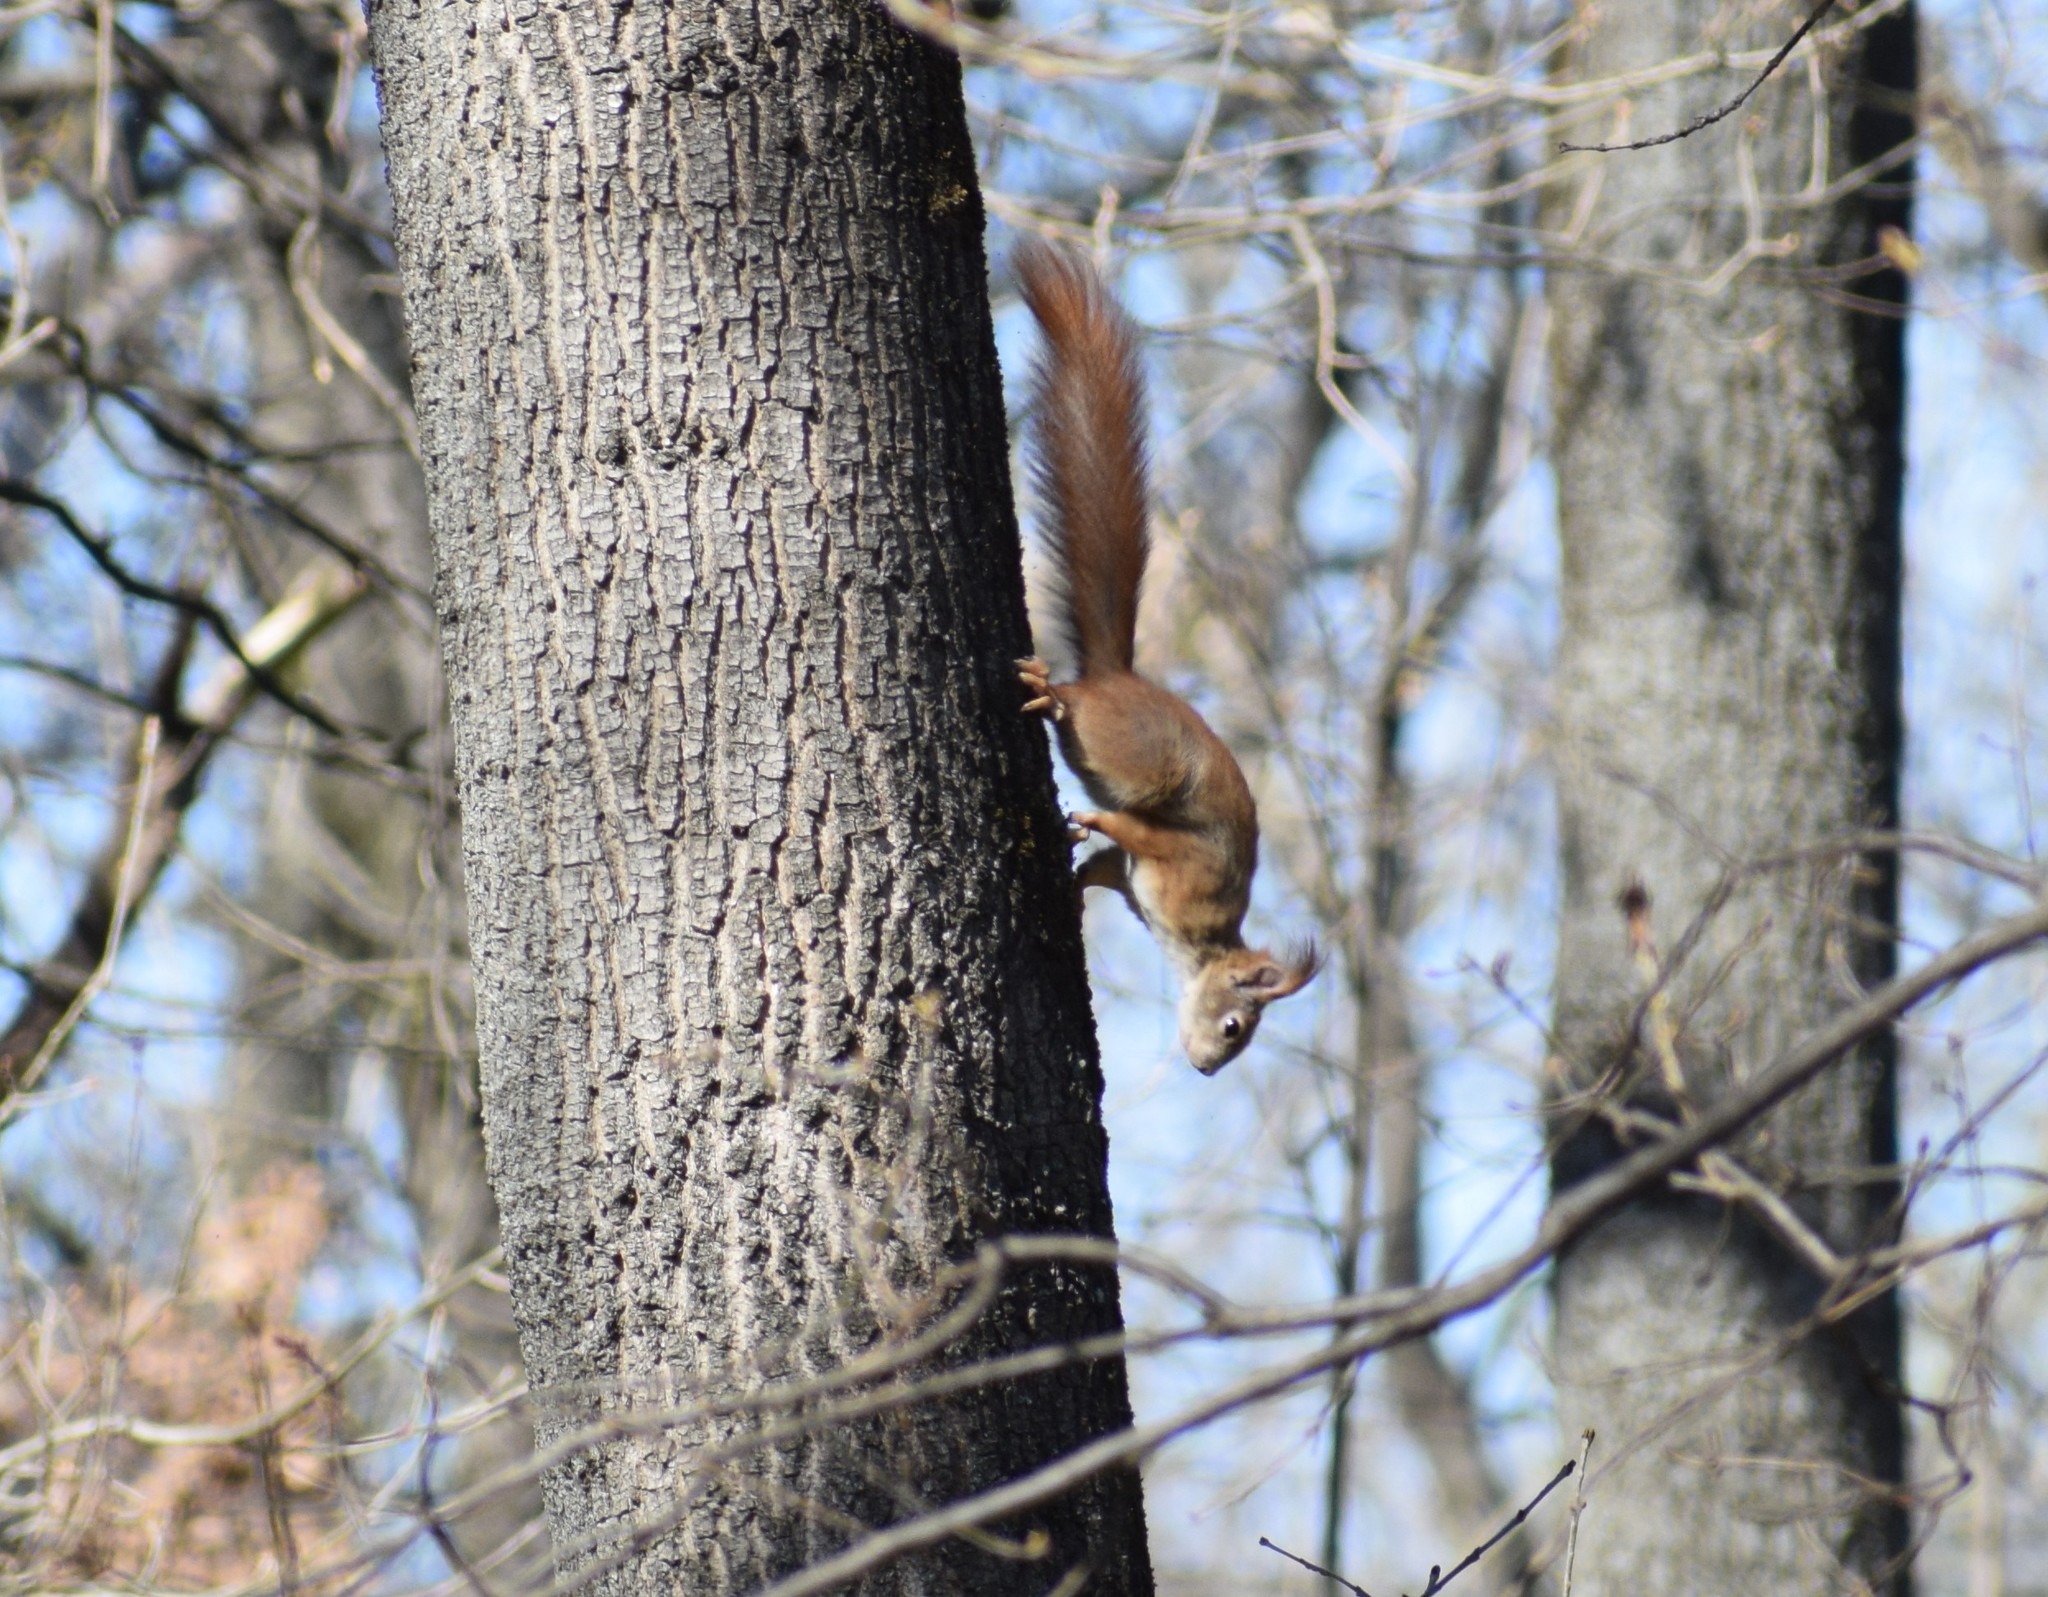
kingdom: Animalia
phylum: Chordata
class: Mammalia
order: Rodentia
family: Sciuridae
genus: Sciurus
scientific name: Sciurus vulgaris
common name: Eurasian red squirrel
